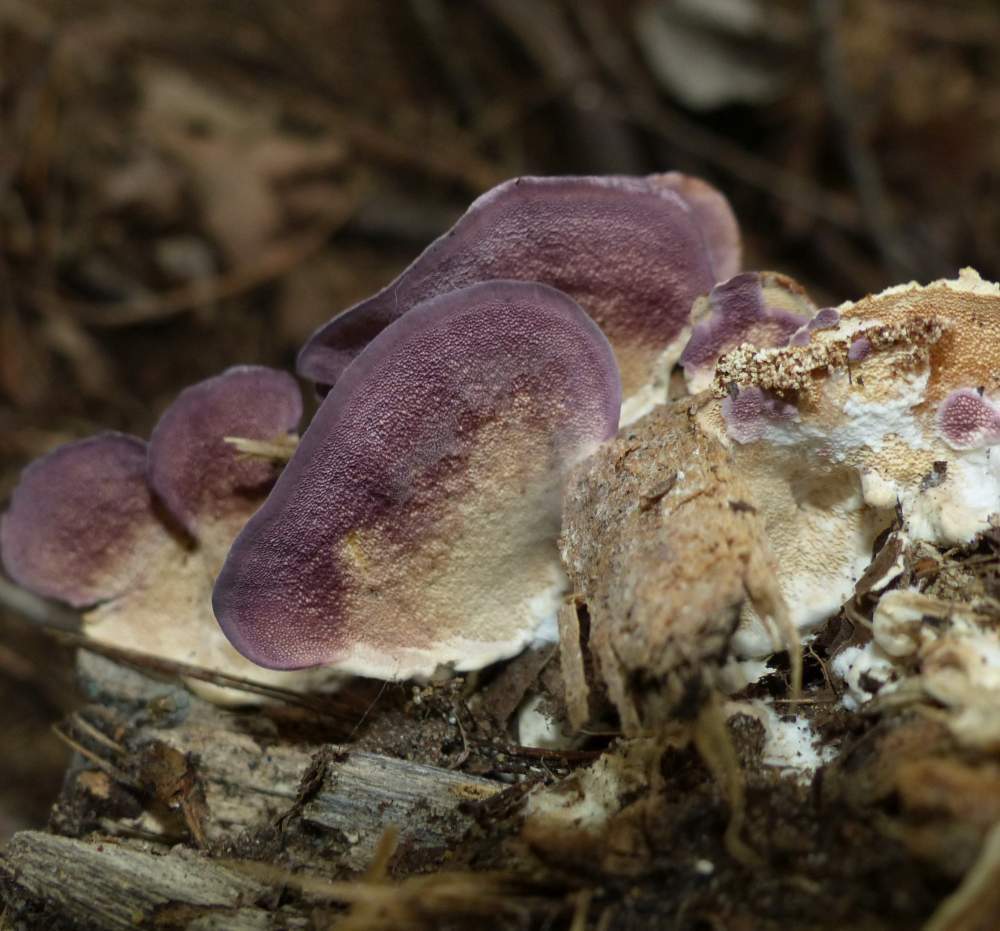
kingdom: Fungi
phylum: Basidiomycota
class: Agaricomycetes
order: Hymenochaetales
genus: Trichaptum
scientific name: Trichaptum biforme
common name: Violet-toothed polypore
